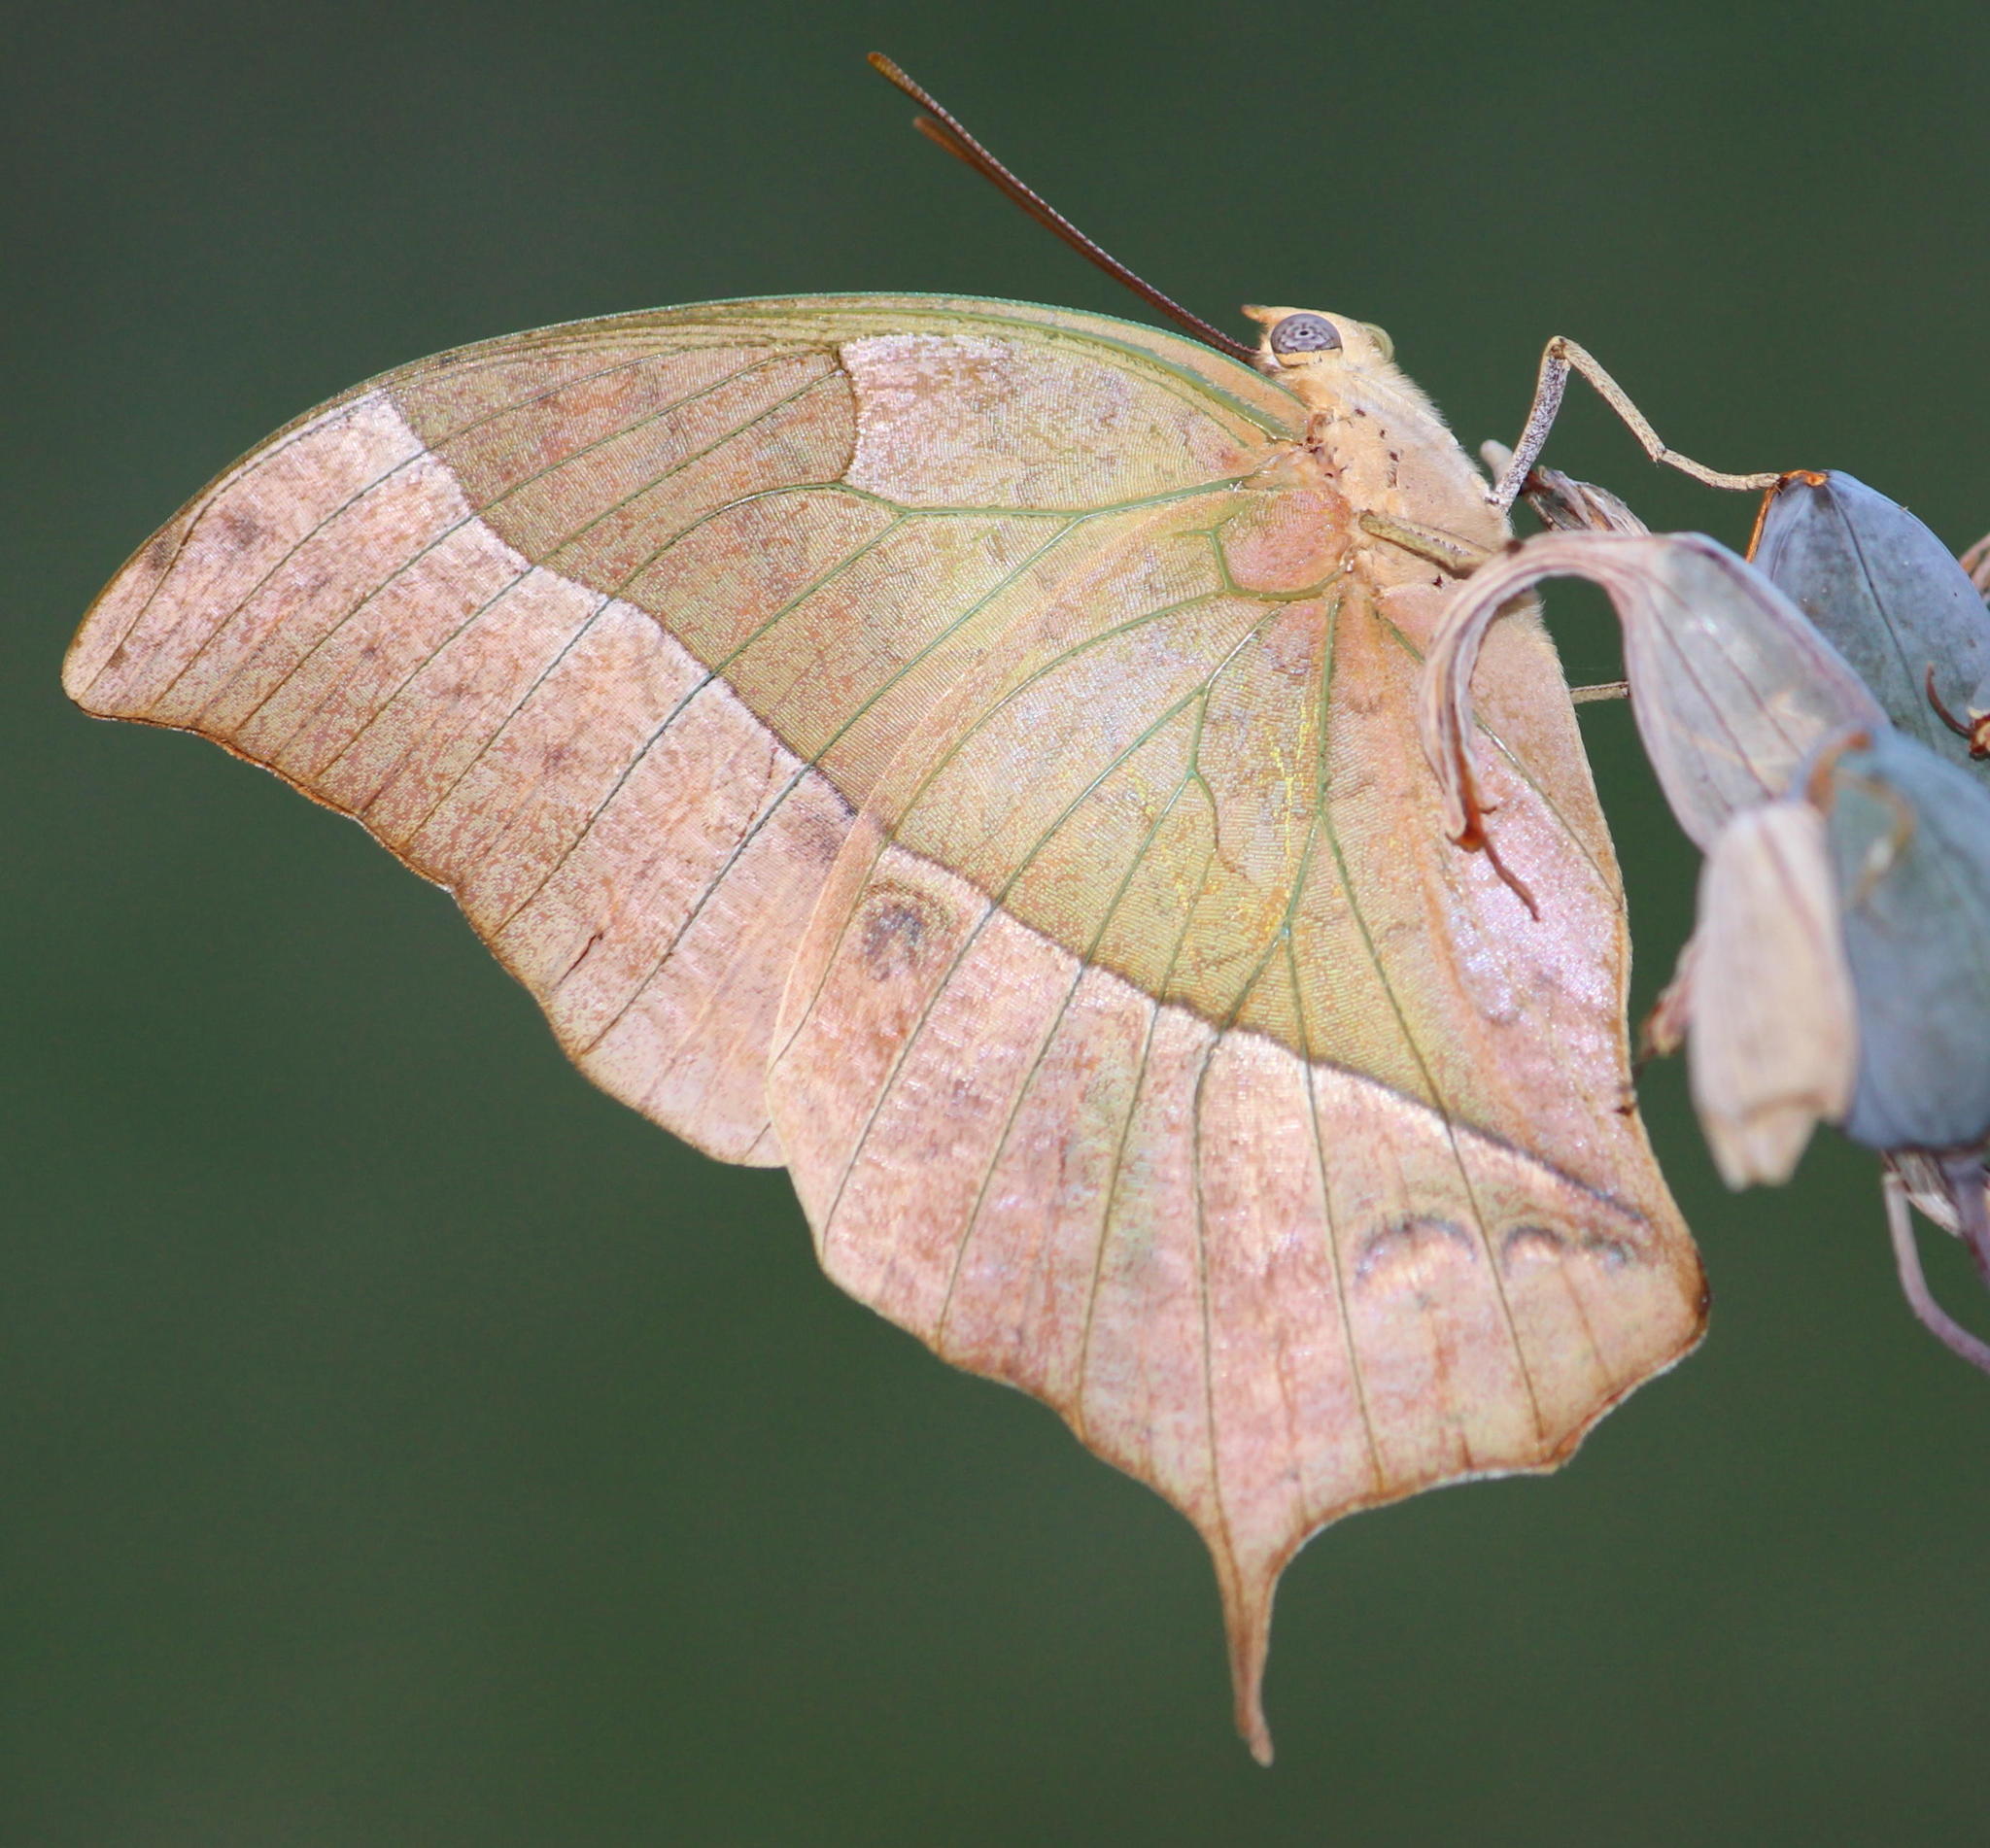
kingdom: Animalia
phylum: Arthropoda
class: Insecta
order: Lepidoptera
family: Nymphalidae
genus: Charaxes
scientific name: Charaxes varanes
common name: Common pearl charaxes
